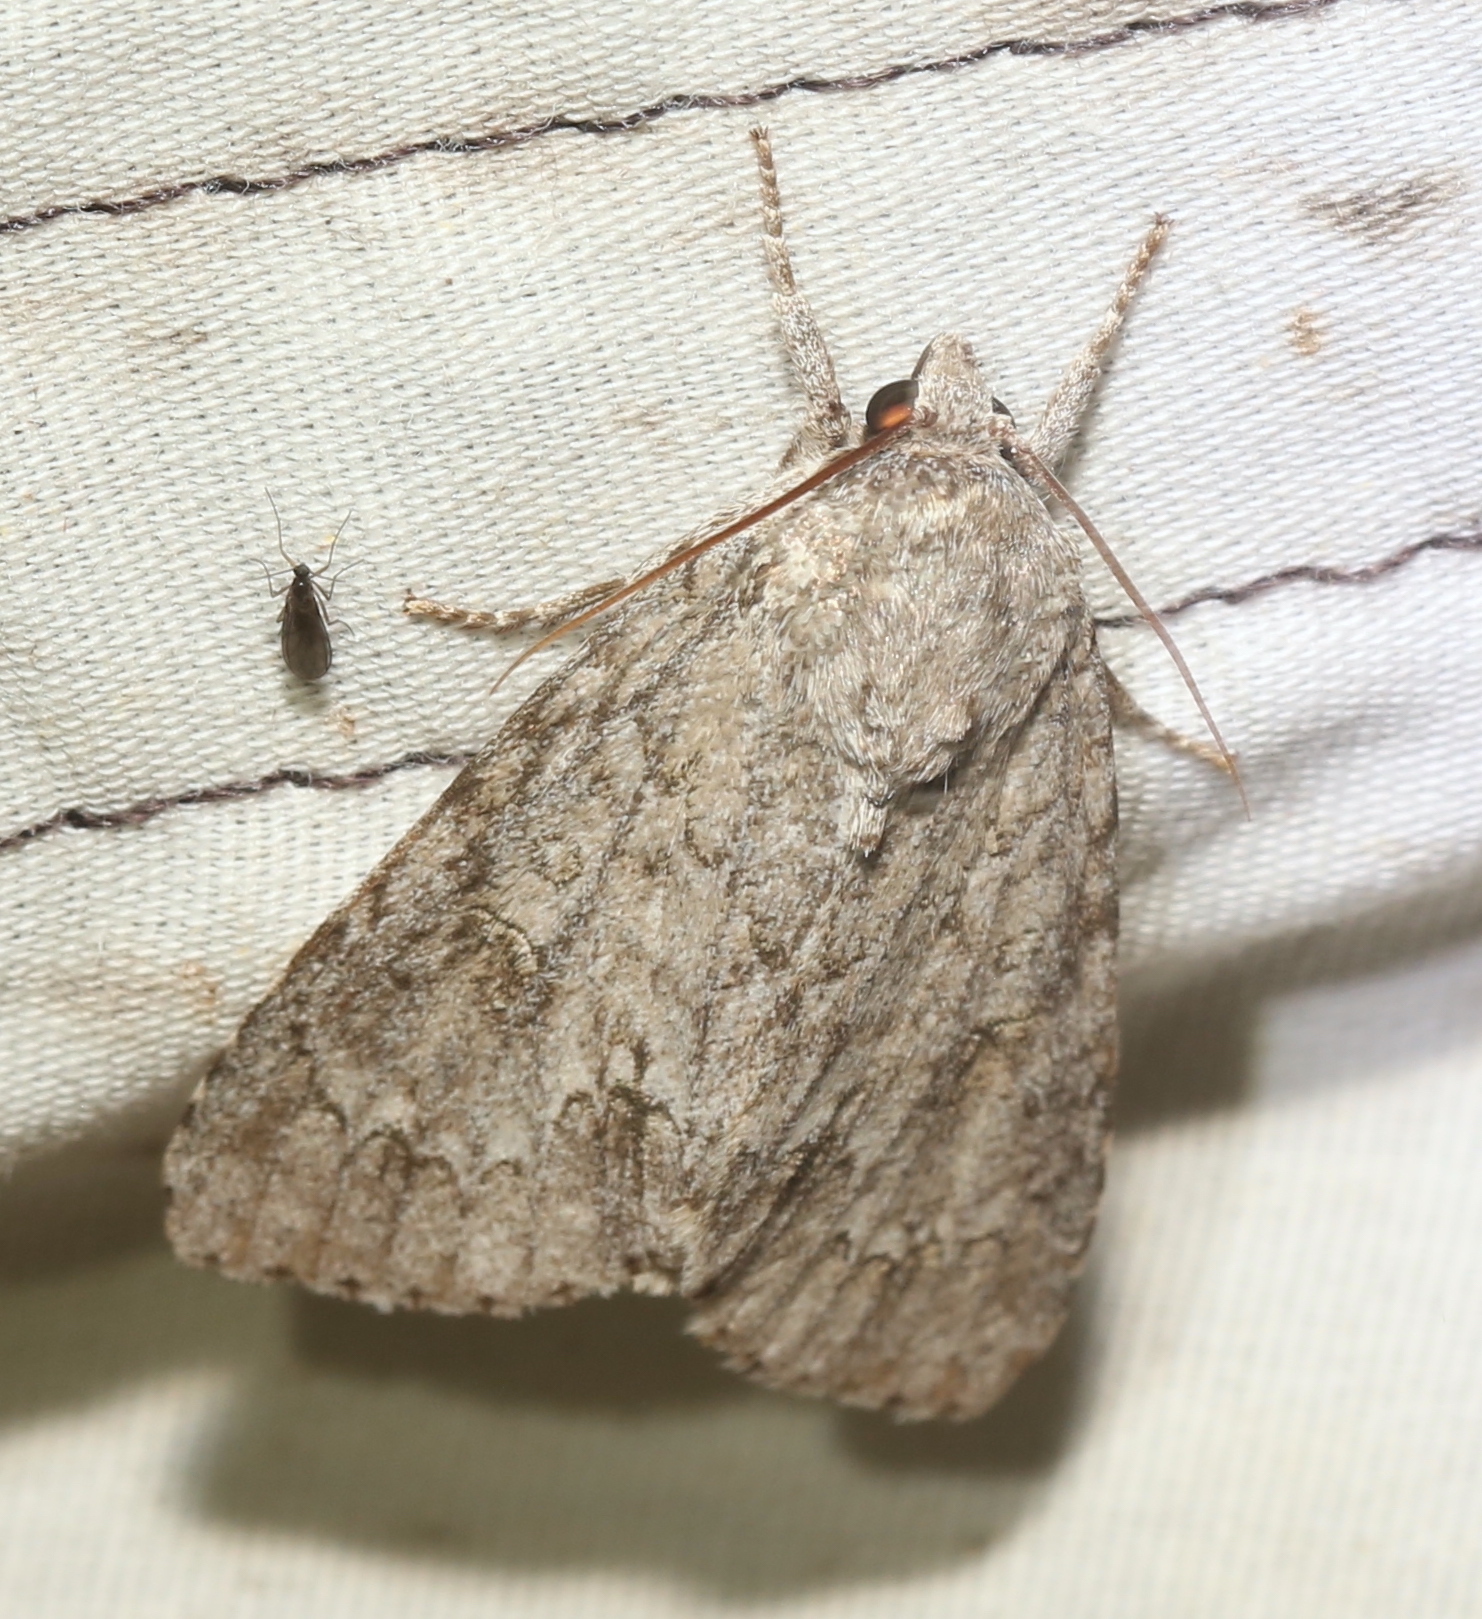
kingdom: Animalia
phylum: Arthropoda
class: Insecta
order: Lepidoptera
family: Noctuidae
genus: Acronicta
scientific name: Acronicta americana
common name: American dagger
